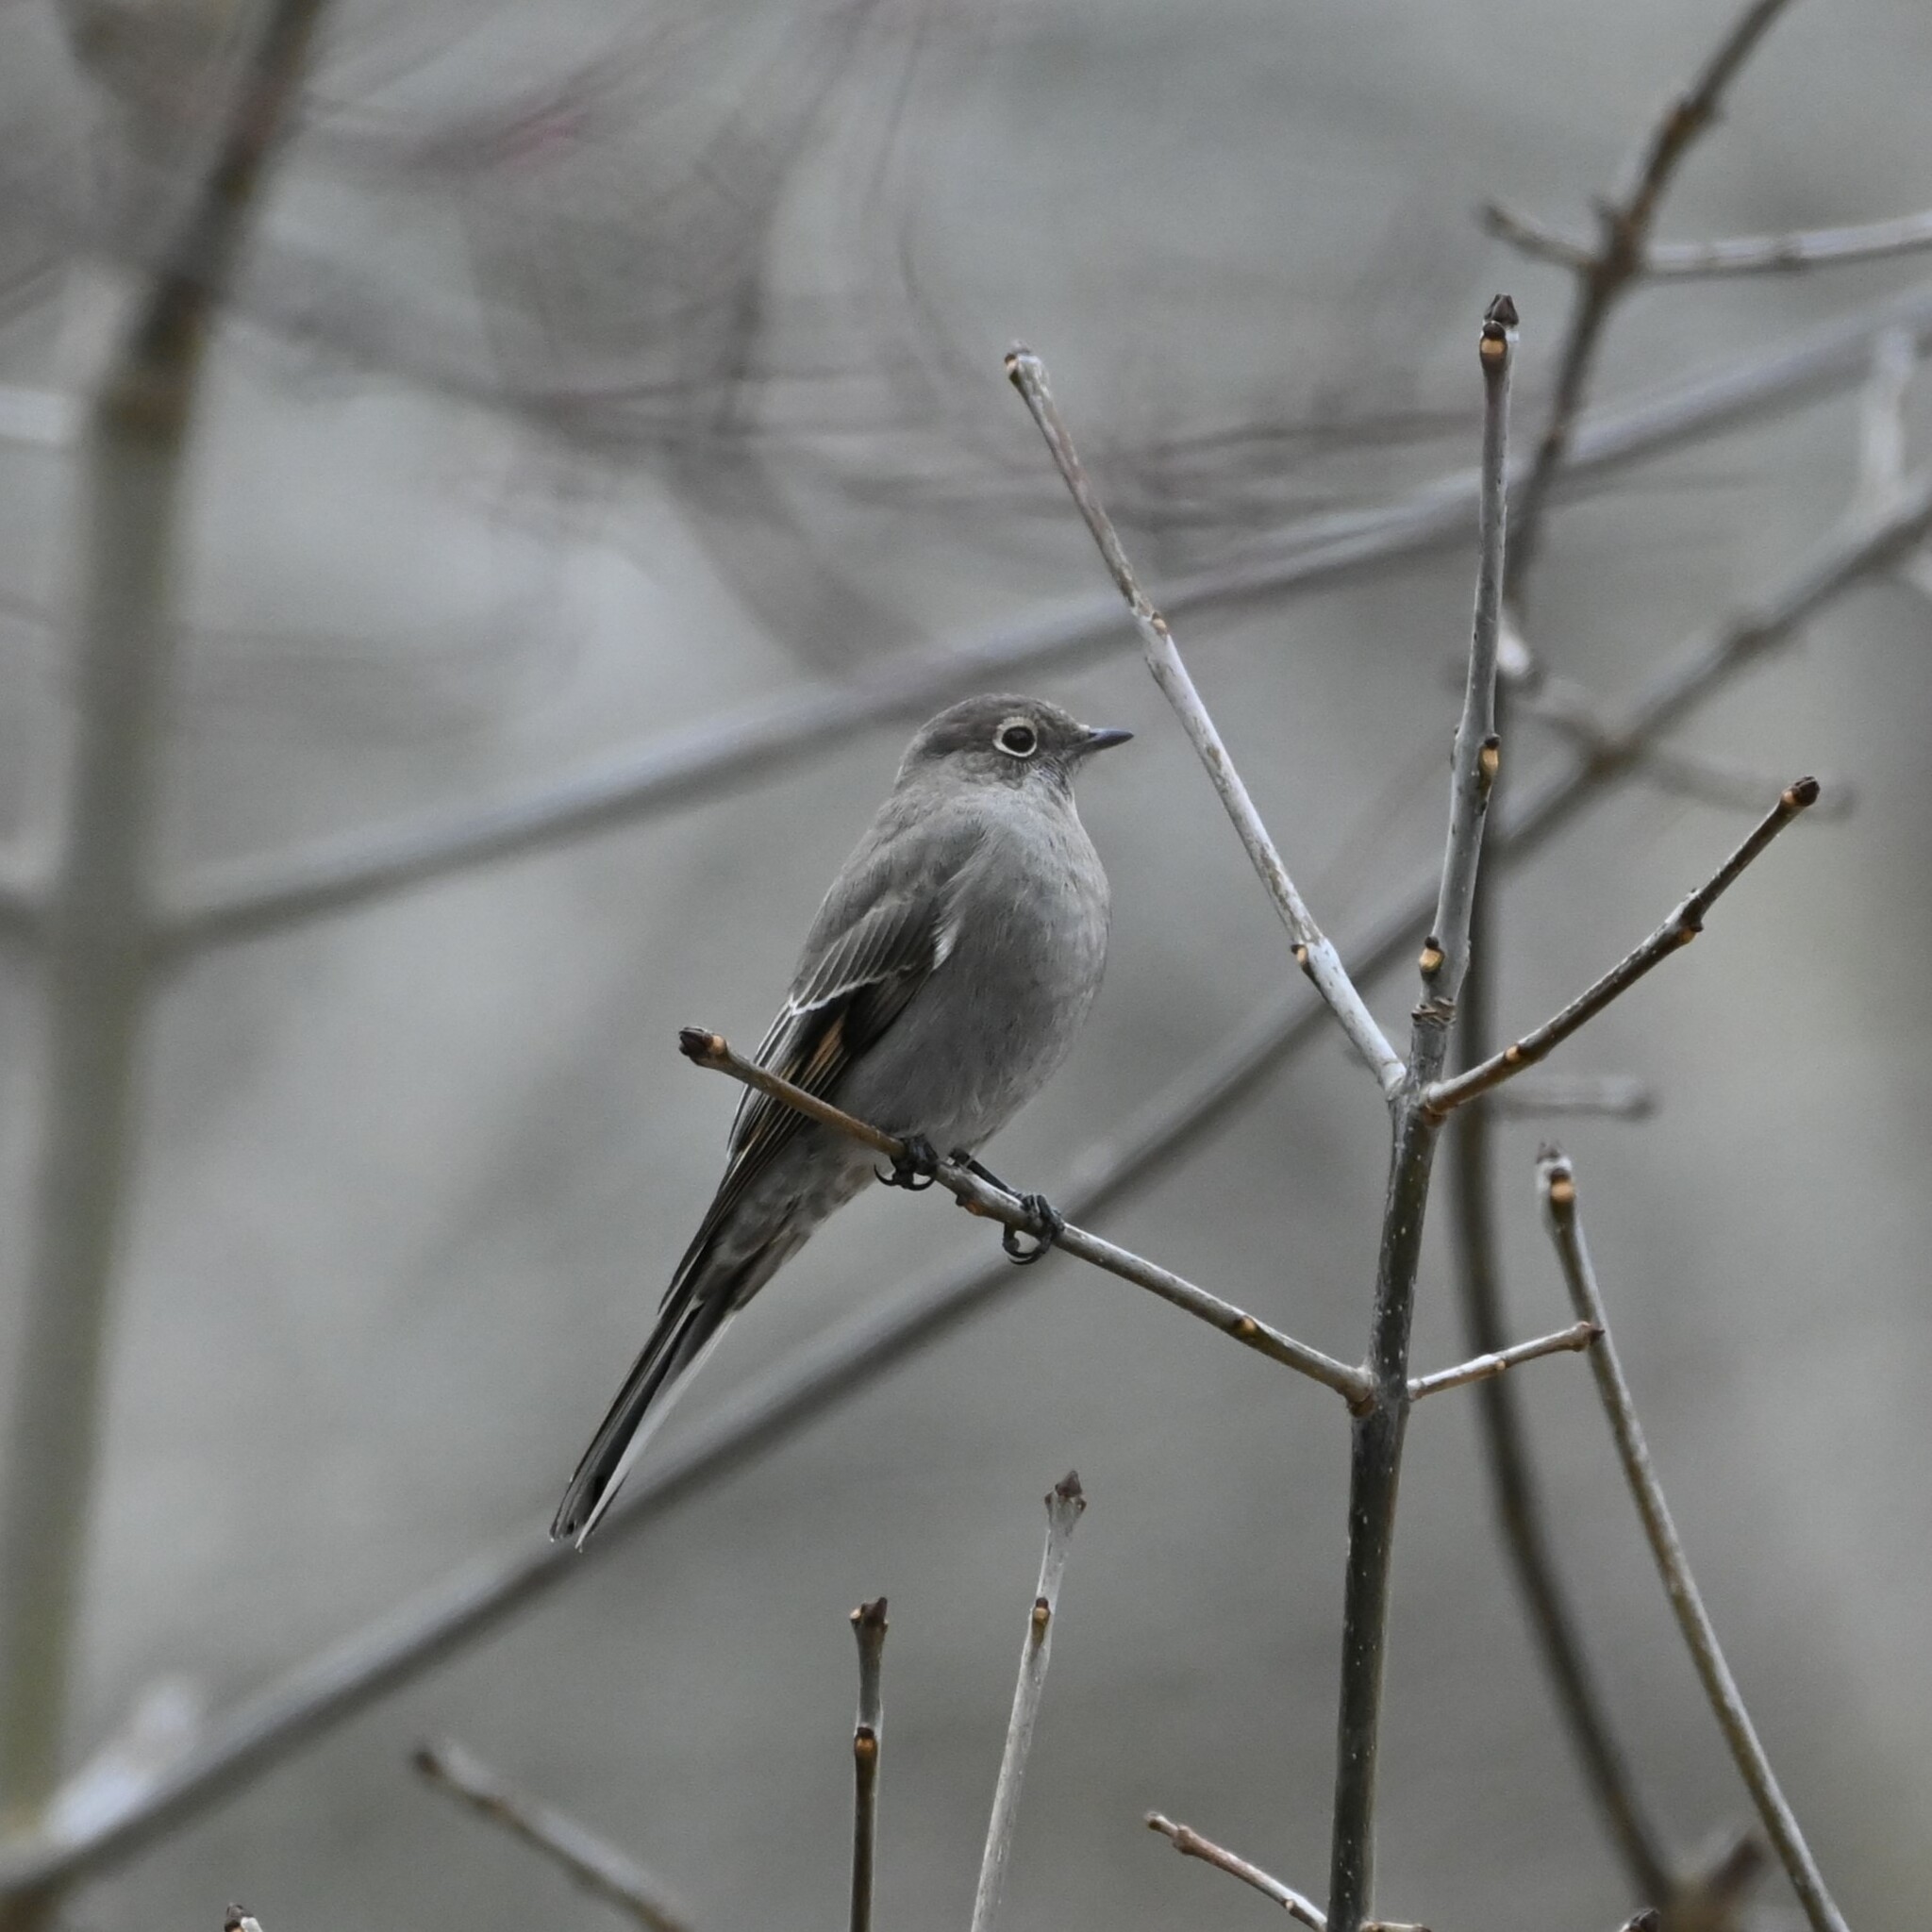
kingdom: Animalia
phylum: Chordata
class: Aves
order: Passeriformes
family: Turdidae
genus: Myadestes
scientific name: Myadestes townsendi
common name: Townsend's solitaire
